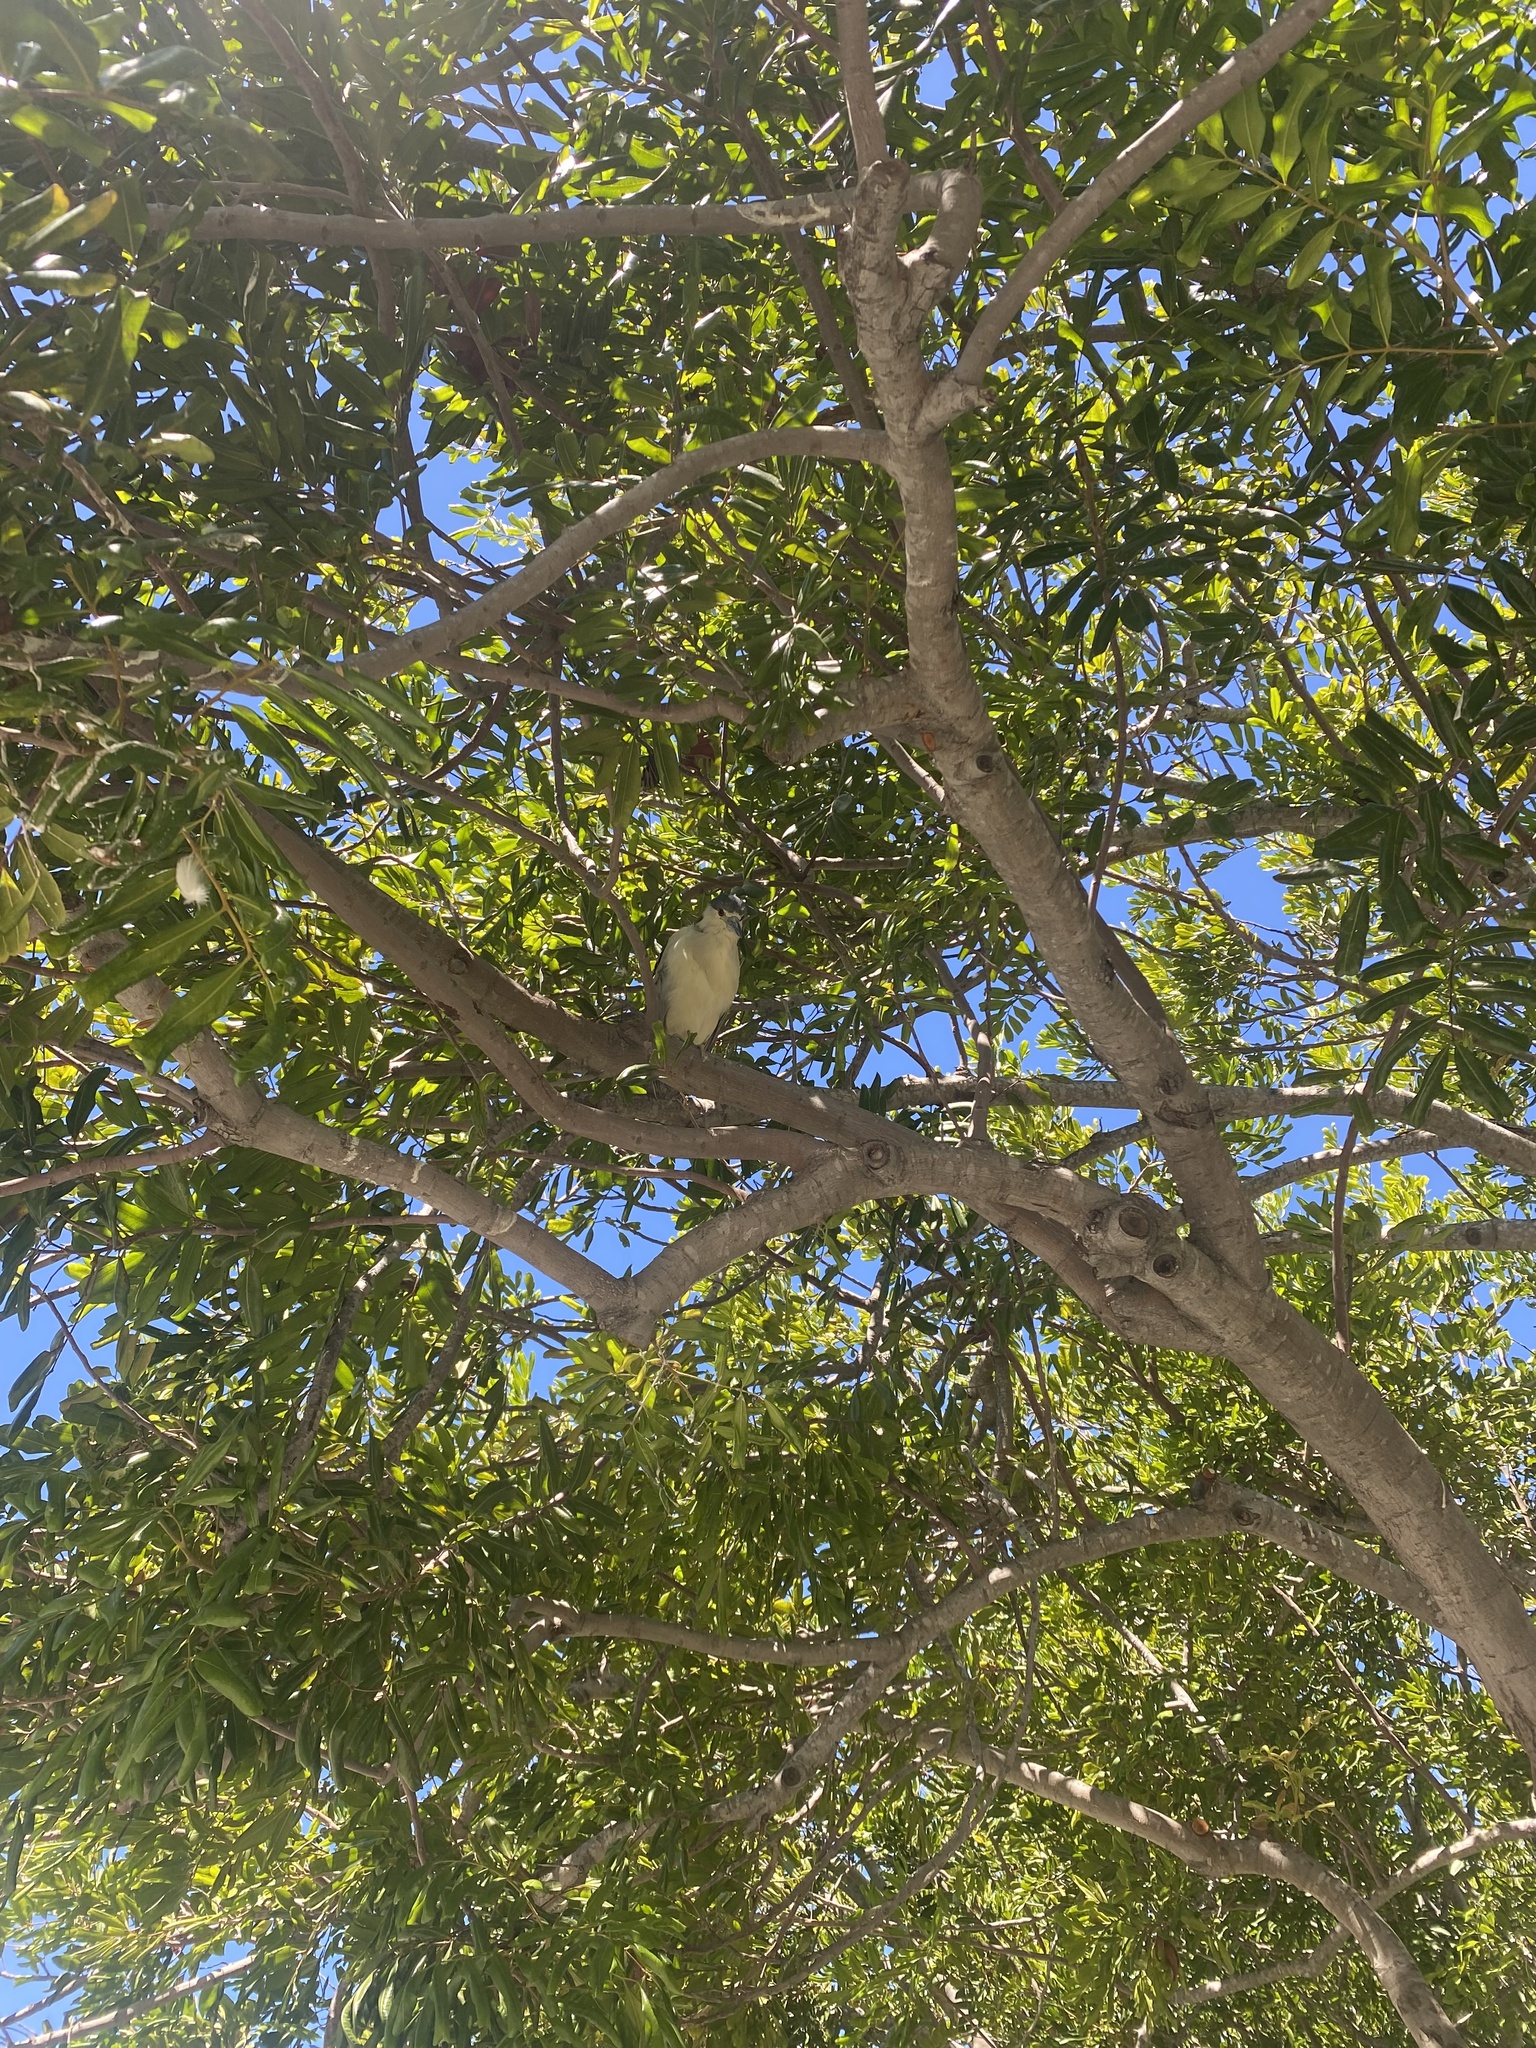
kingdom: Animalia
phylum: Chordata
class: Aves
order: Pelecaniformes
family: Ardeidae
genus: Nycticorax
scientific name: Nycticorax nycticorax
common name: Black-crowned night heron
